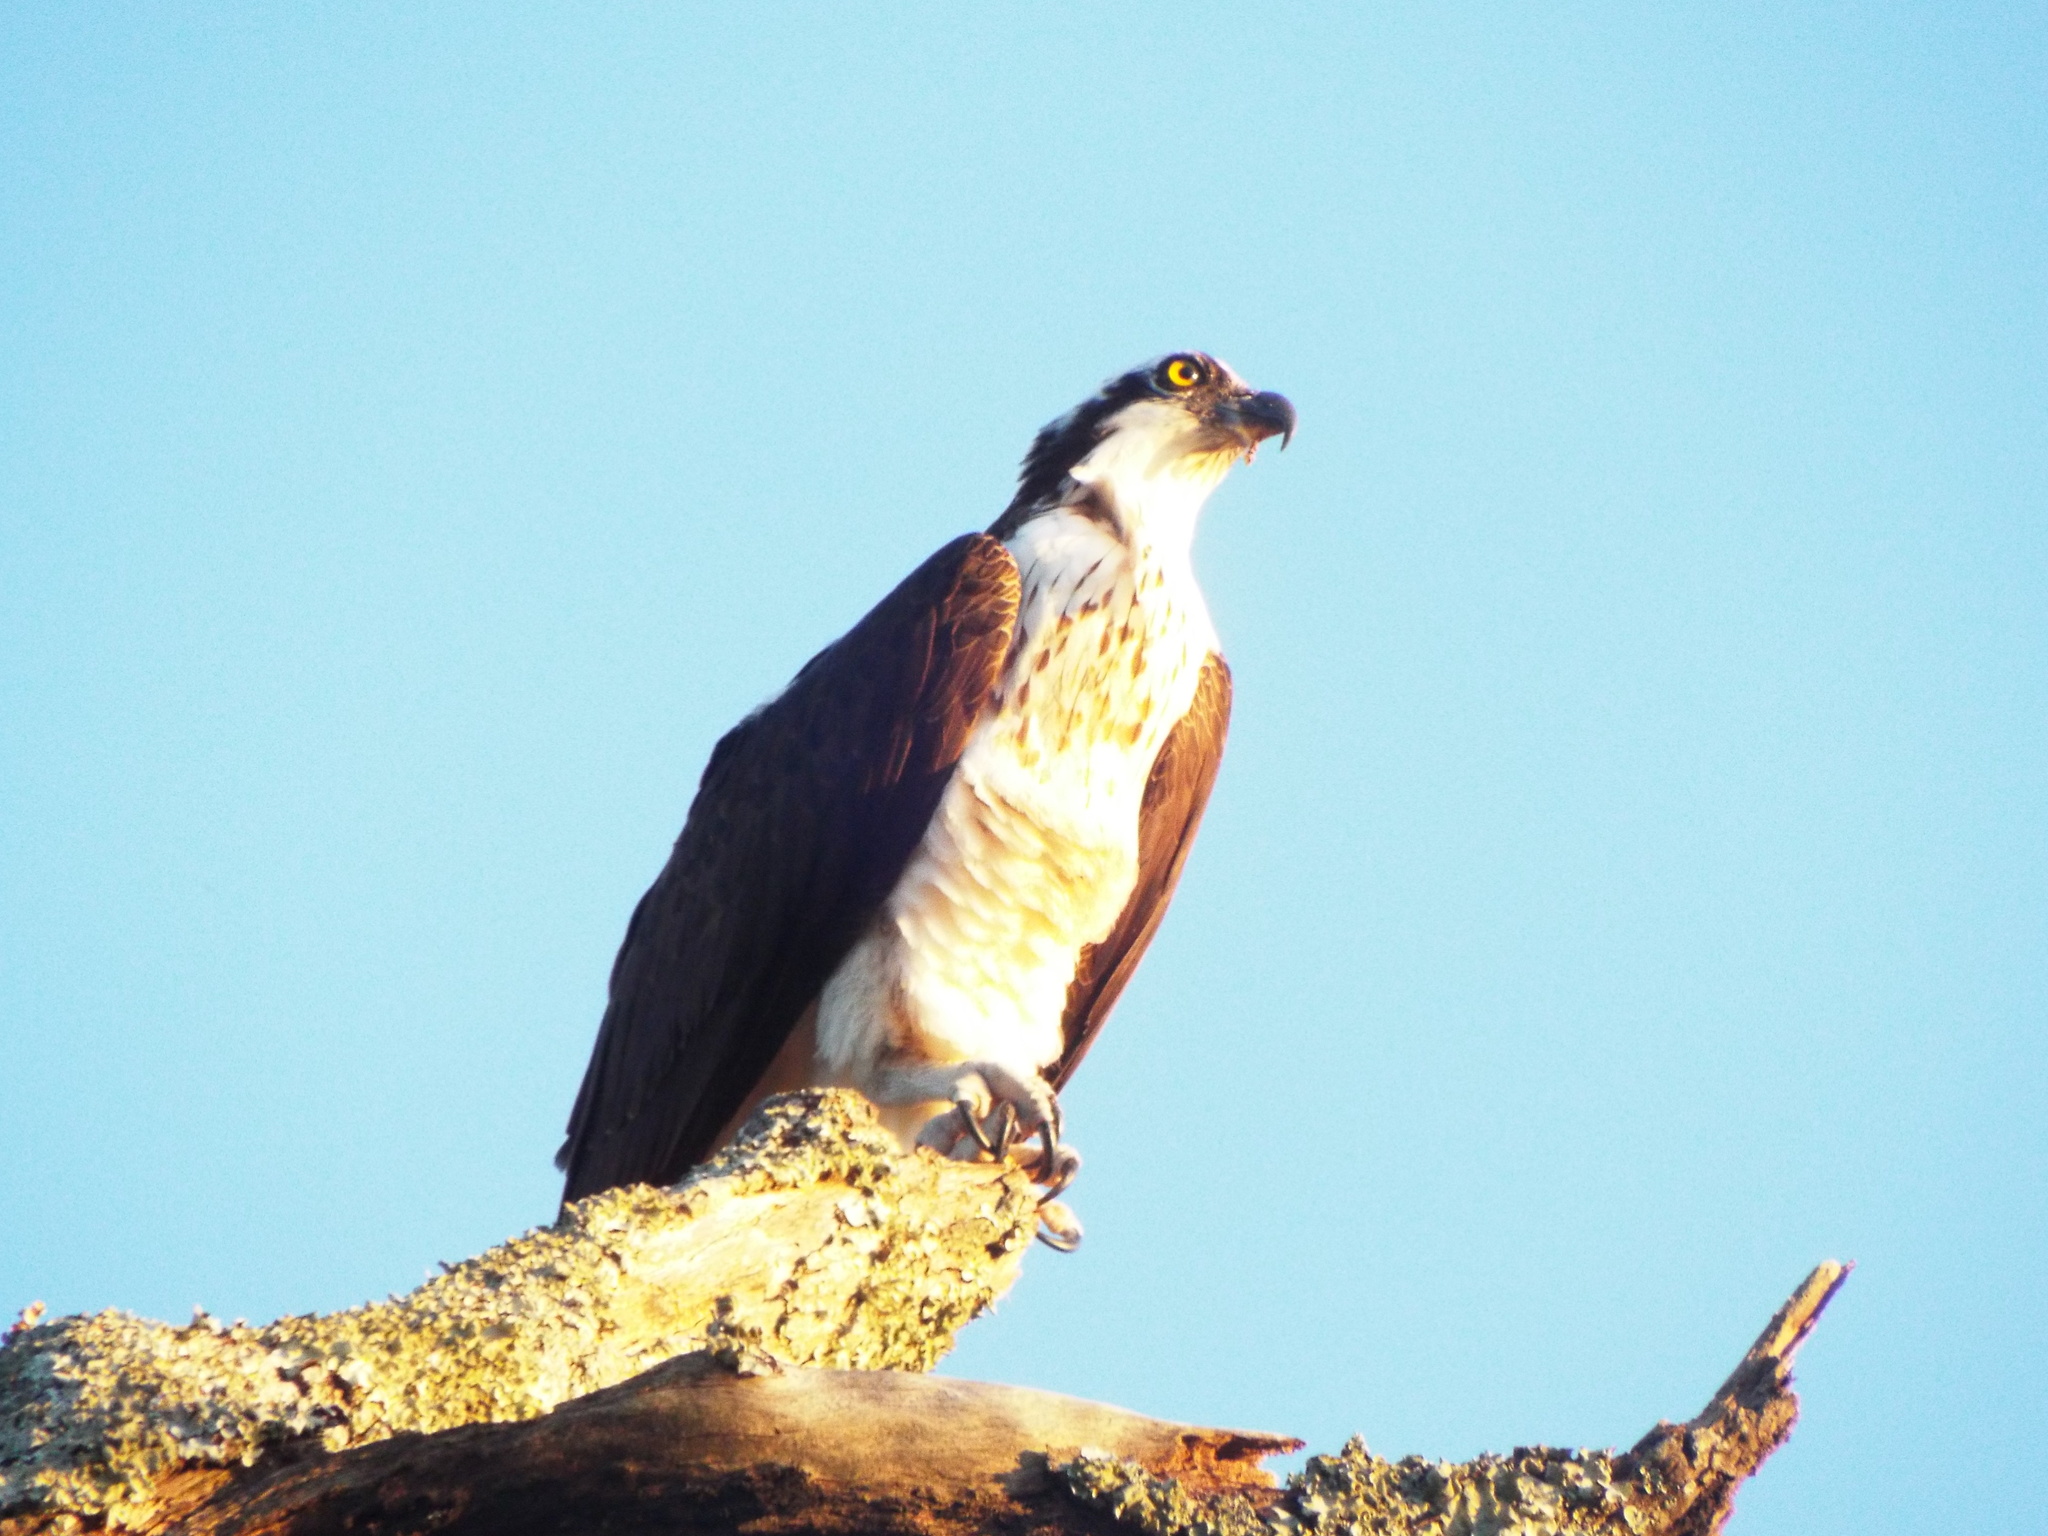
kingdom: Animalia
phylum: Chordata
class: Aves
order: Accipitriformes
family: Pandionidae
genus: Pandion
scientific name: Pandion haliaetus
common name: Osprey
